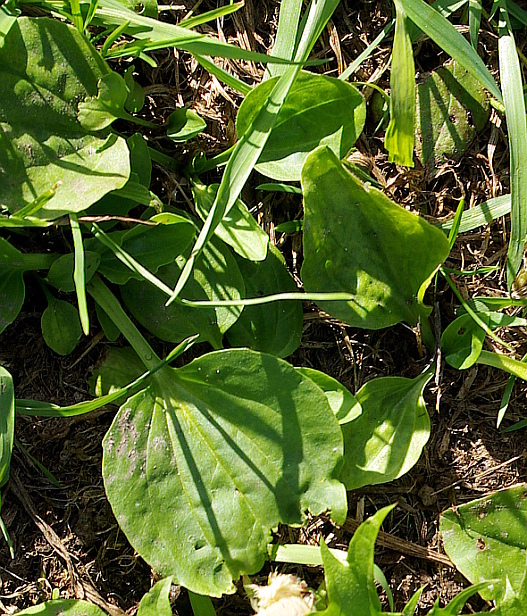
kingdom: Plantae
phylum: Tracheophyta
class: Magnoliopsida
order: Lamiales
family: Plantaginaceae
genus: Plantago
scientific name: Plantago major
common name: Common plantain
